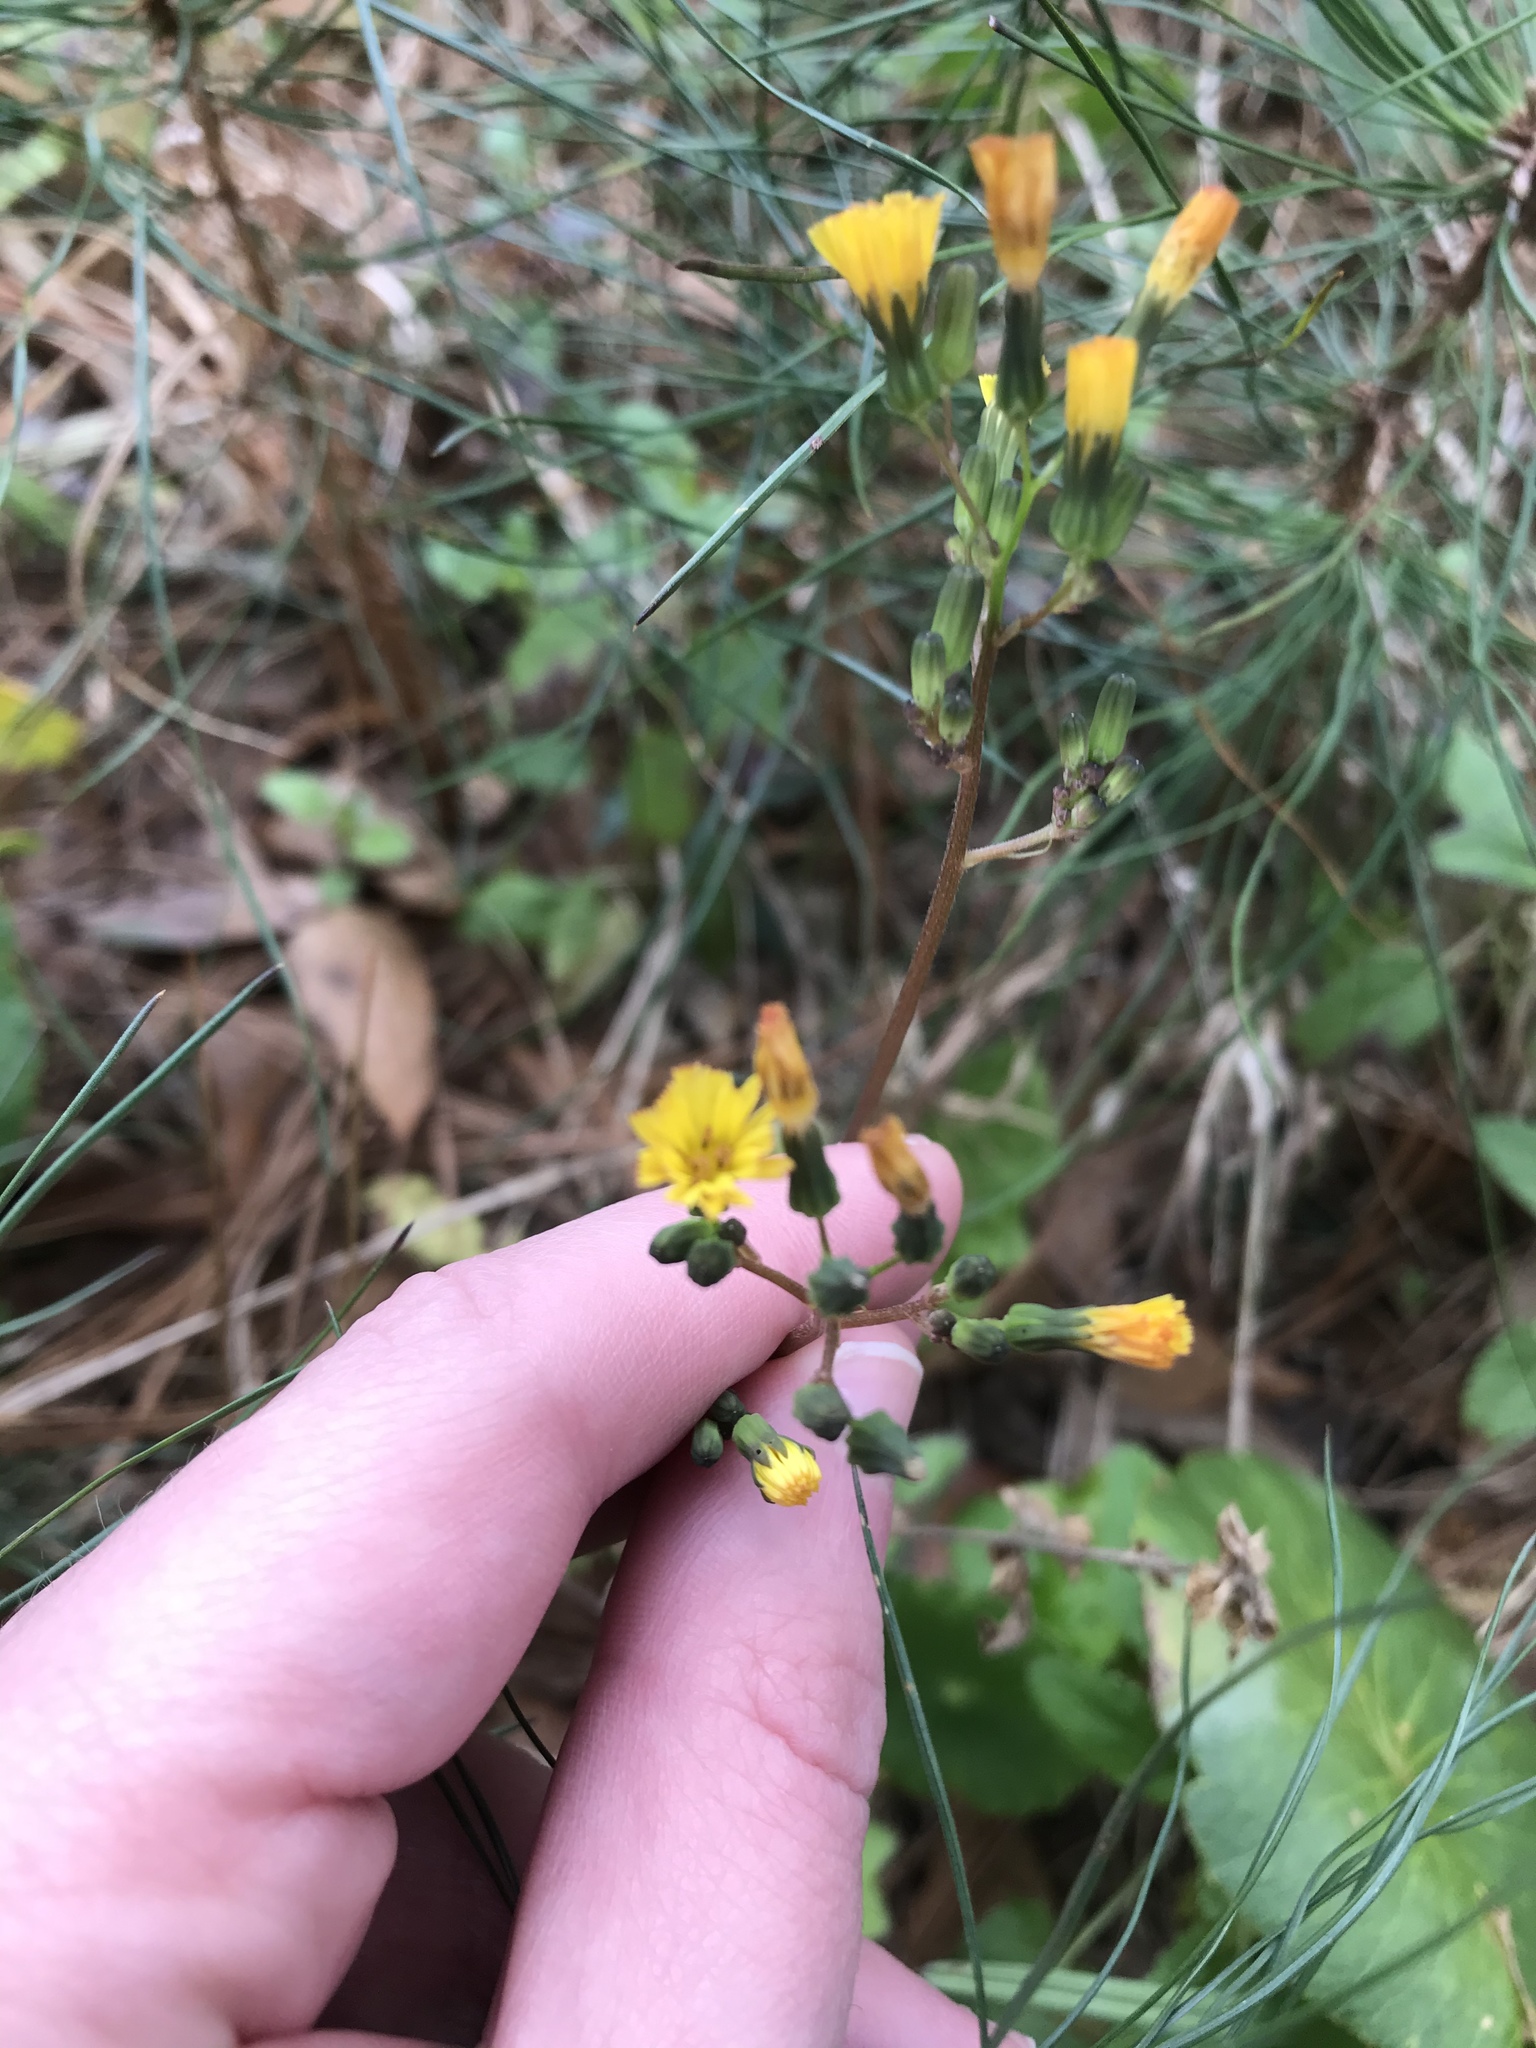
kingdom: Plantae
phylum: Tracheophyta
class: Magnoliopsida
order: Asterales
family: Asteraceae
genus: Youngia
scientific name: Youngia japonica
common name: Oriental false hawksbeard
